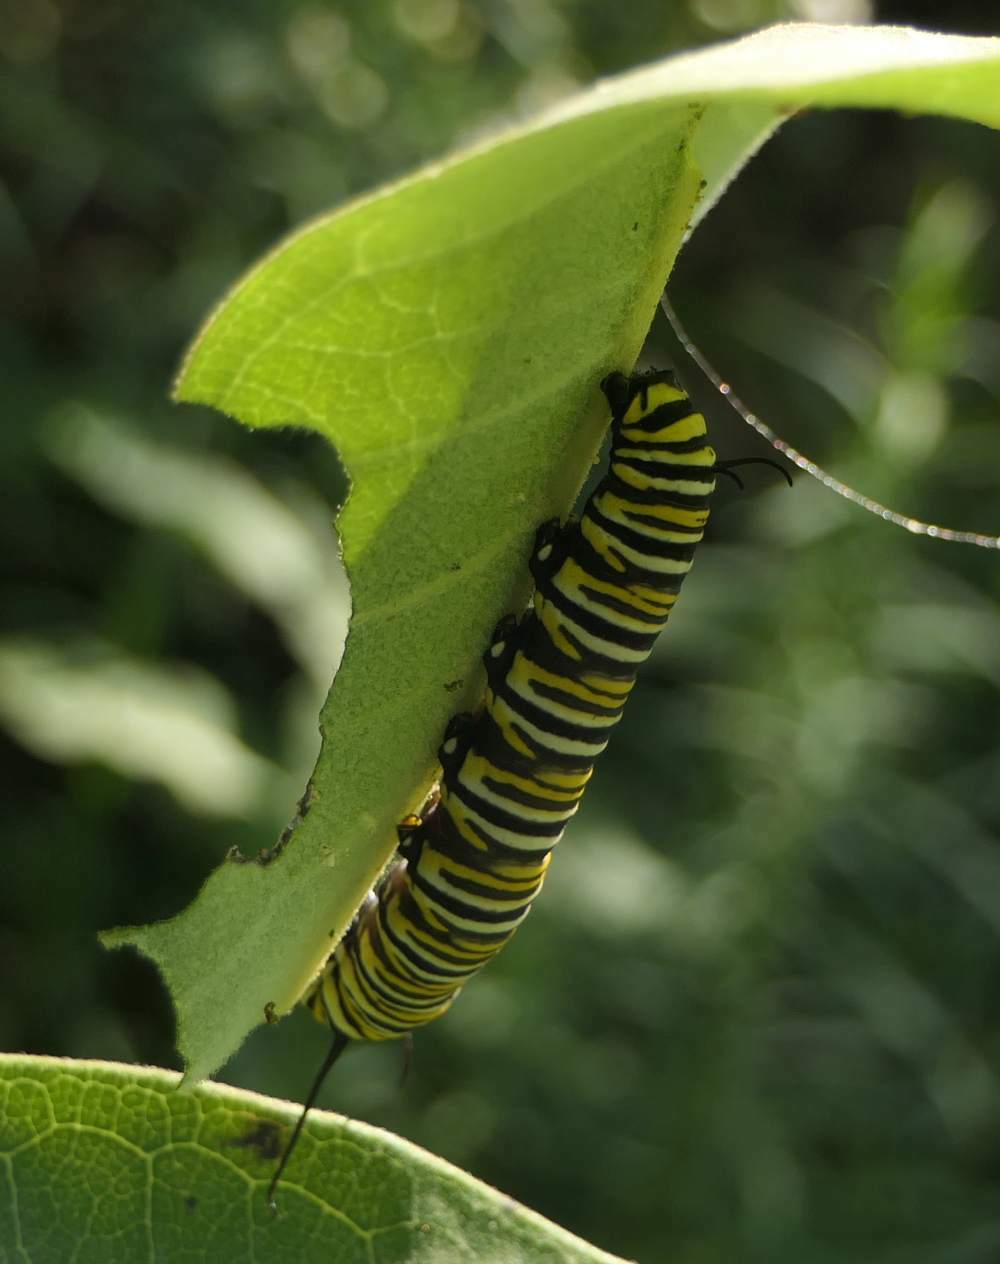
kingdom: Animalia
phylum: Arthropoda
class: Insecta
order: Lepidoptera
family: Nymphalidae
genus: Danaus
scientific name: Danaus plexippus
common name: Monarch
